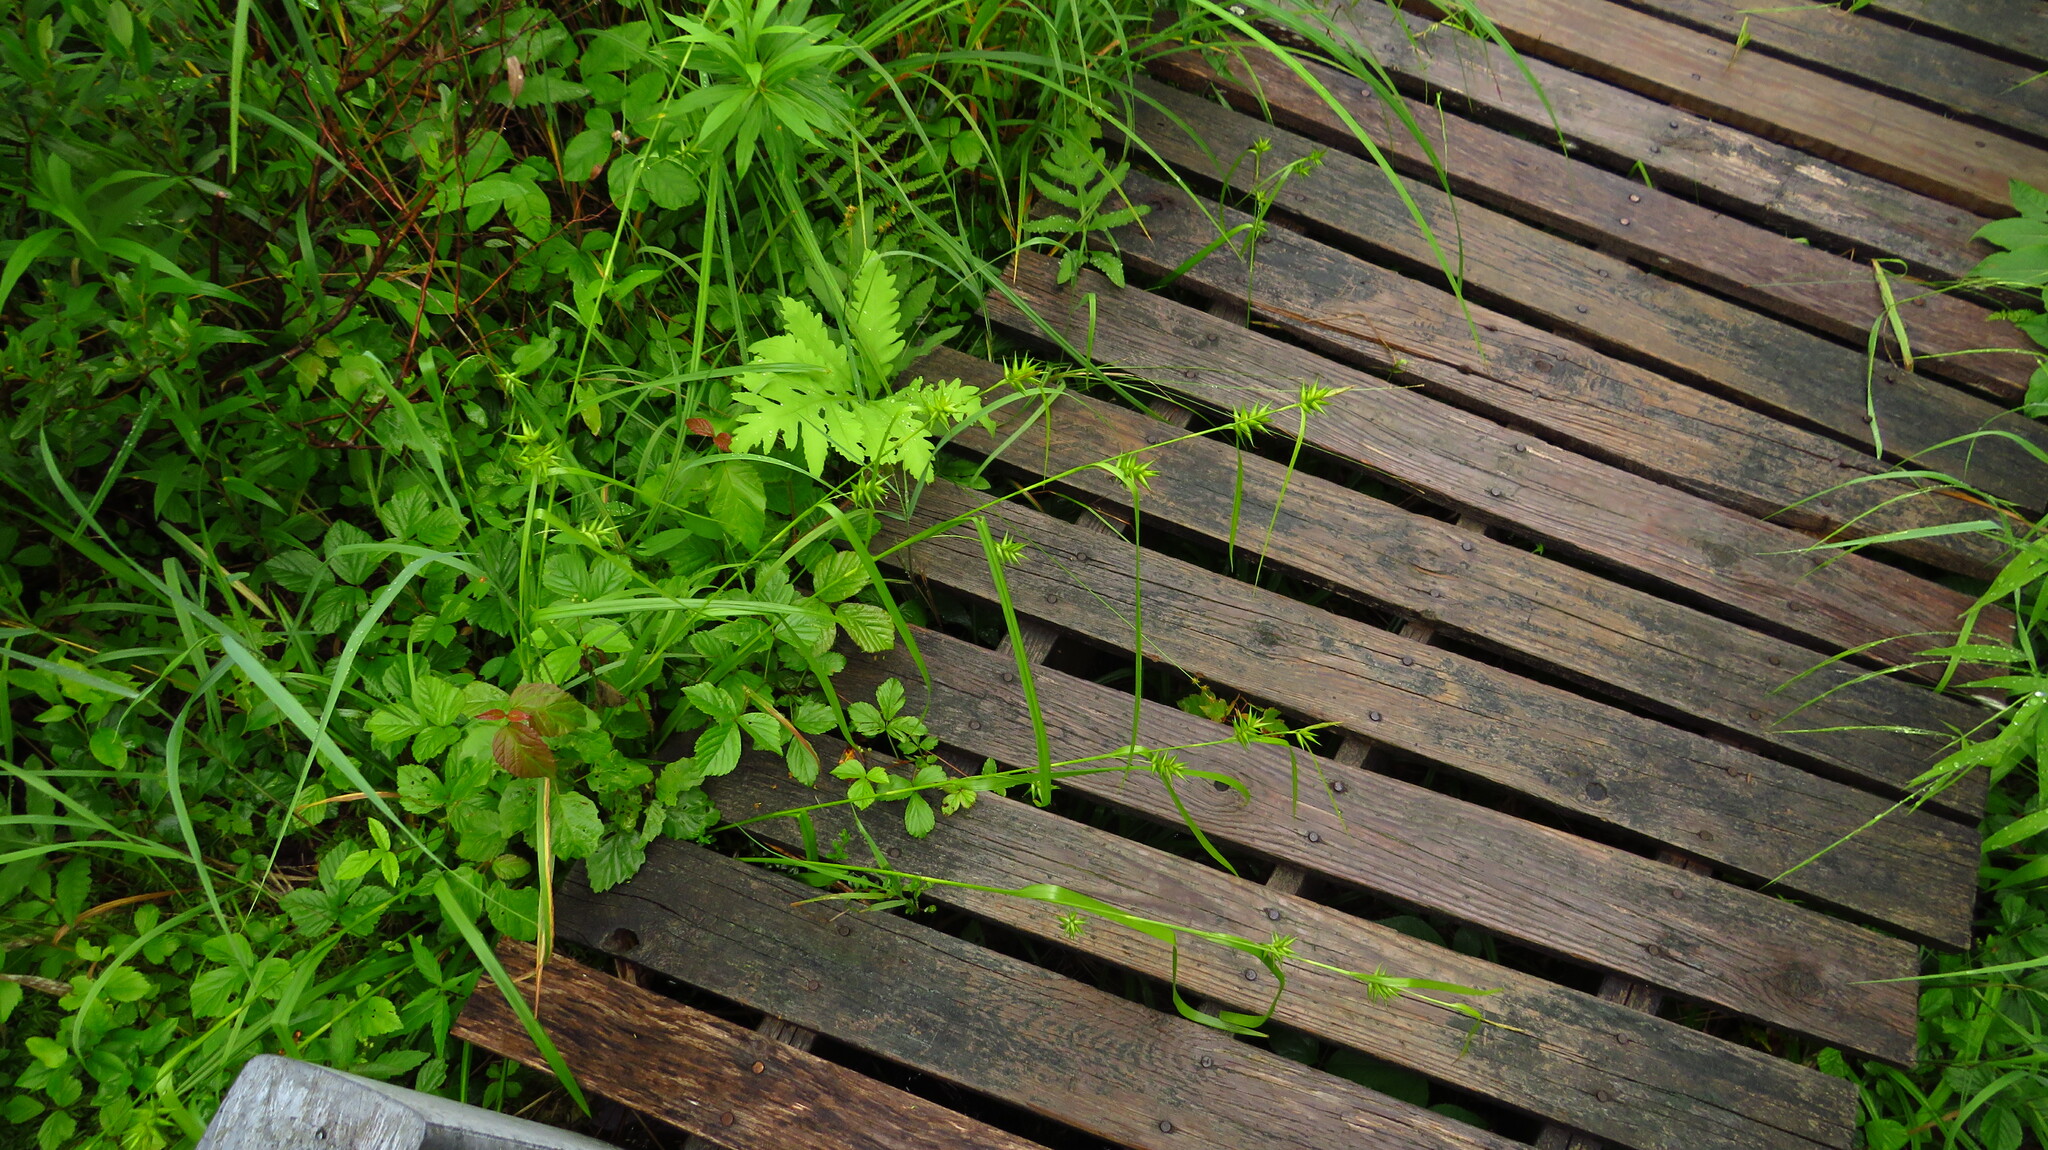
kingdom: Plantae
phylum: Tracheophyta
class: Liliopsida
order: Poales
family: Cyperaceae
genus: Carex
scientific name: Carex folliculata
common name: Northern long sedge
